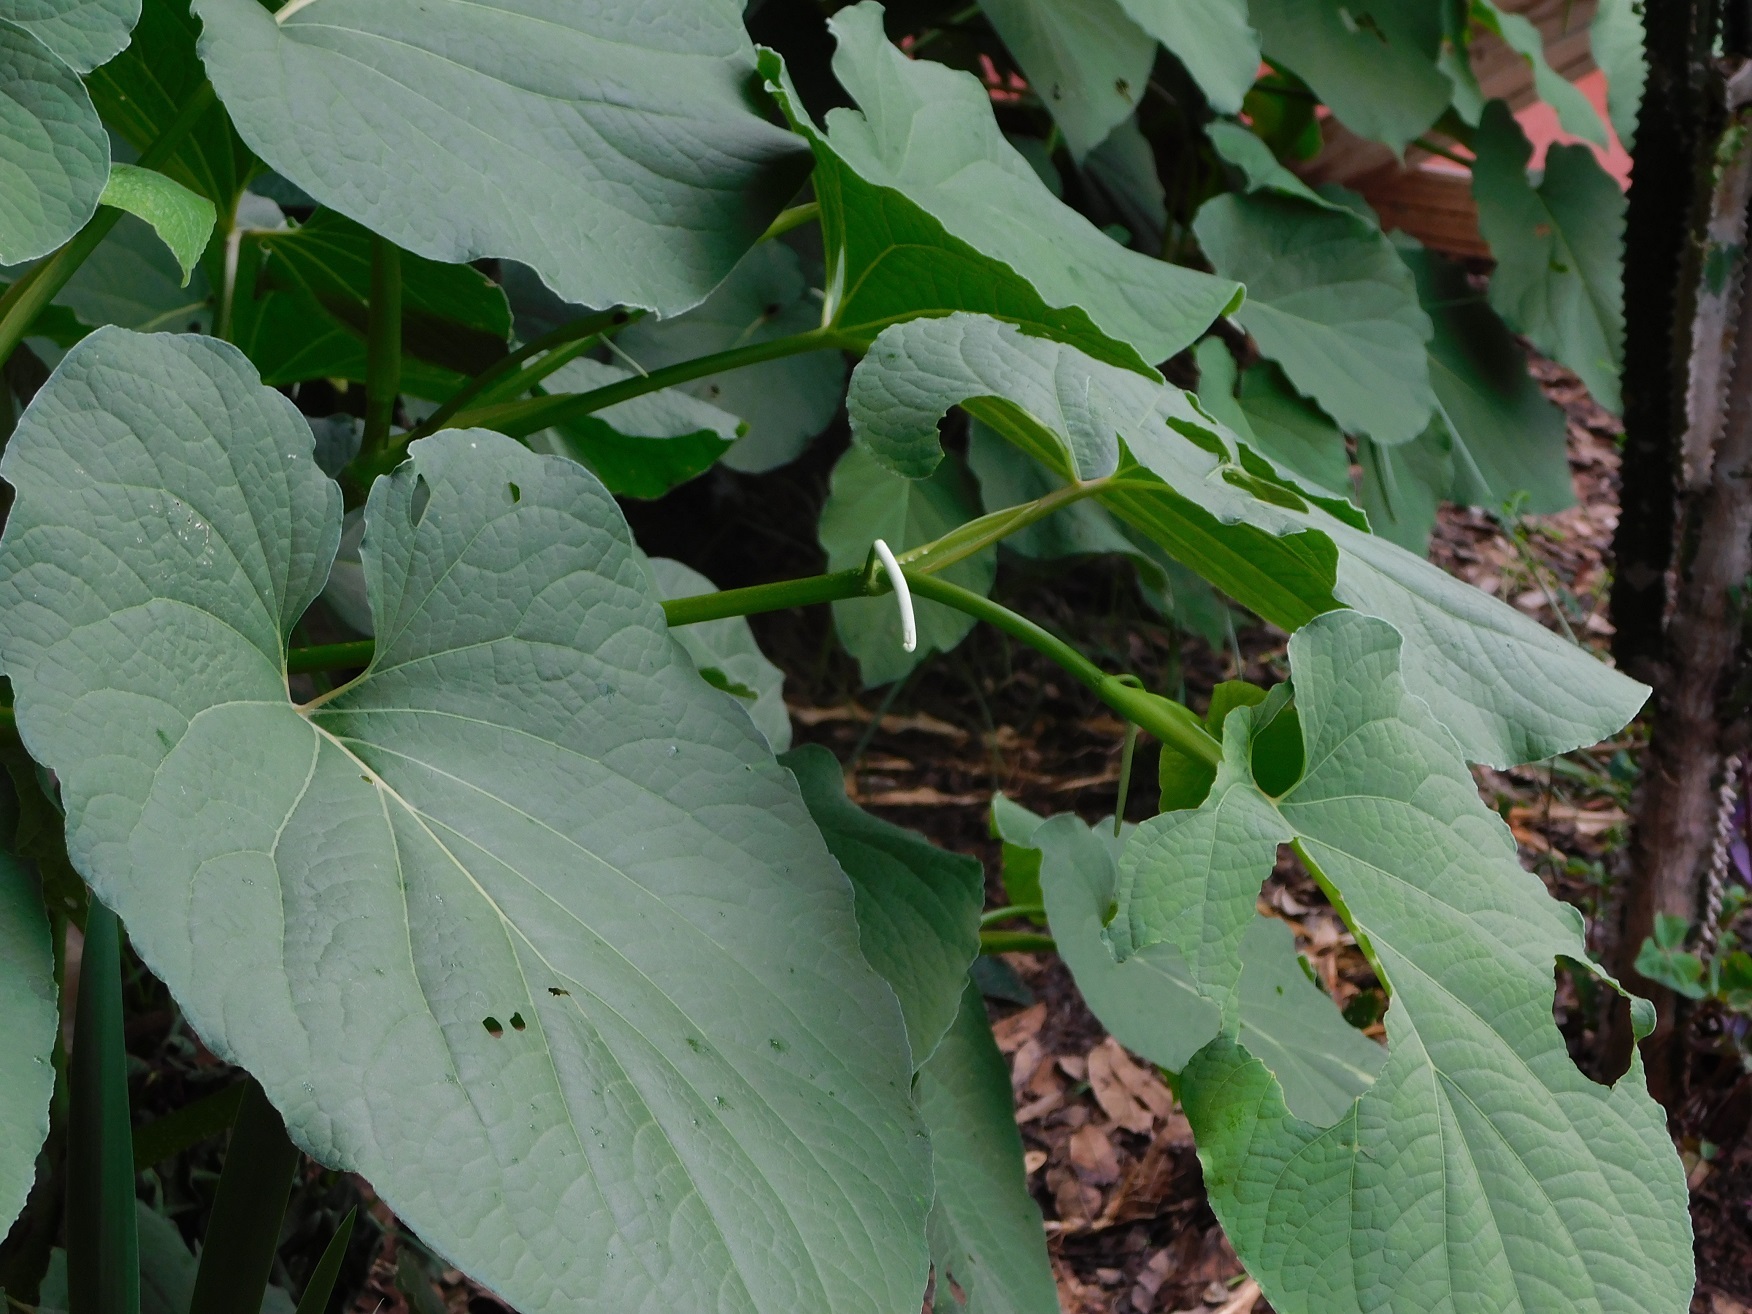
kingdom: Plantae
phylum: Tracheophyta
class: Magnoliopsida
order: Piperales
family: Piperaceae
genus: Piper
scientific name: Piper auritum
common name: Vera cruz pepper
